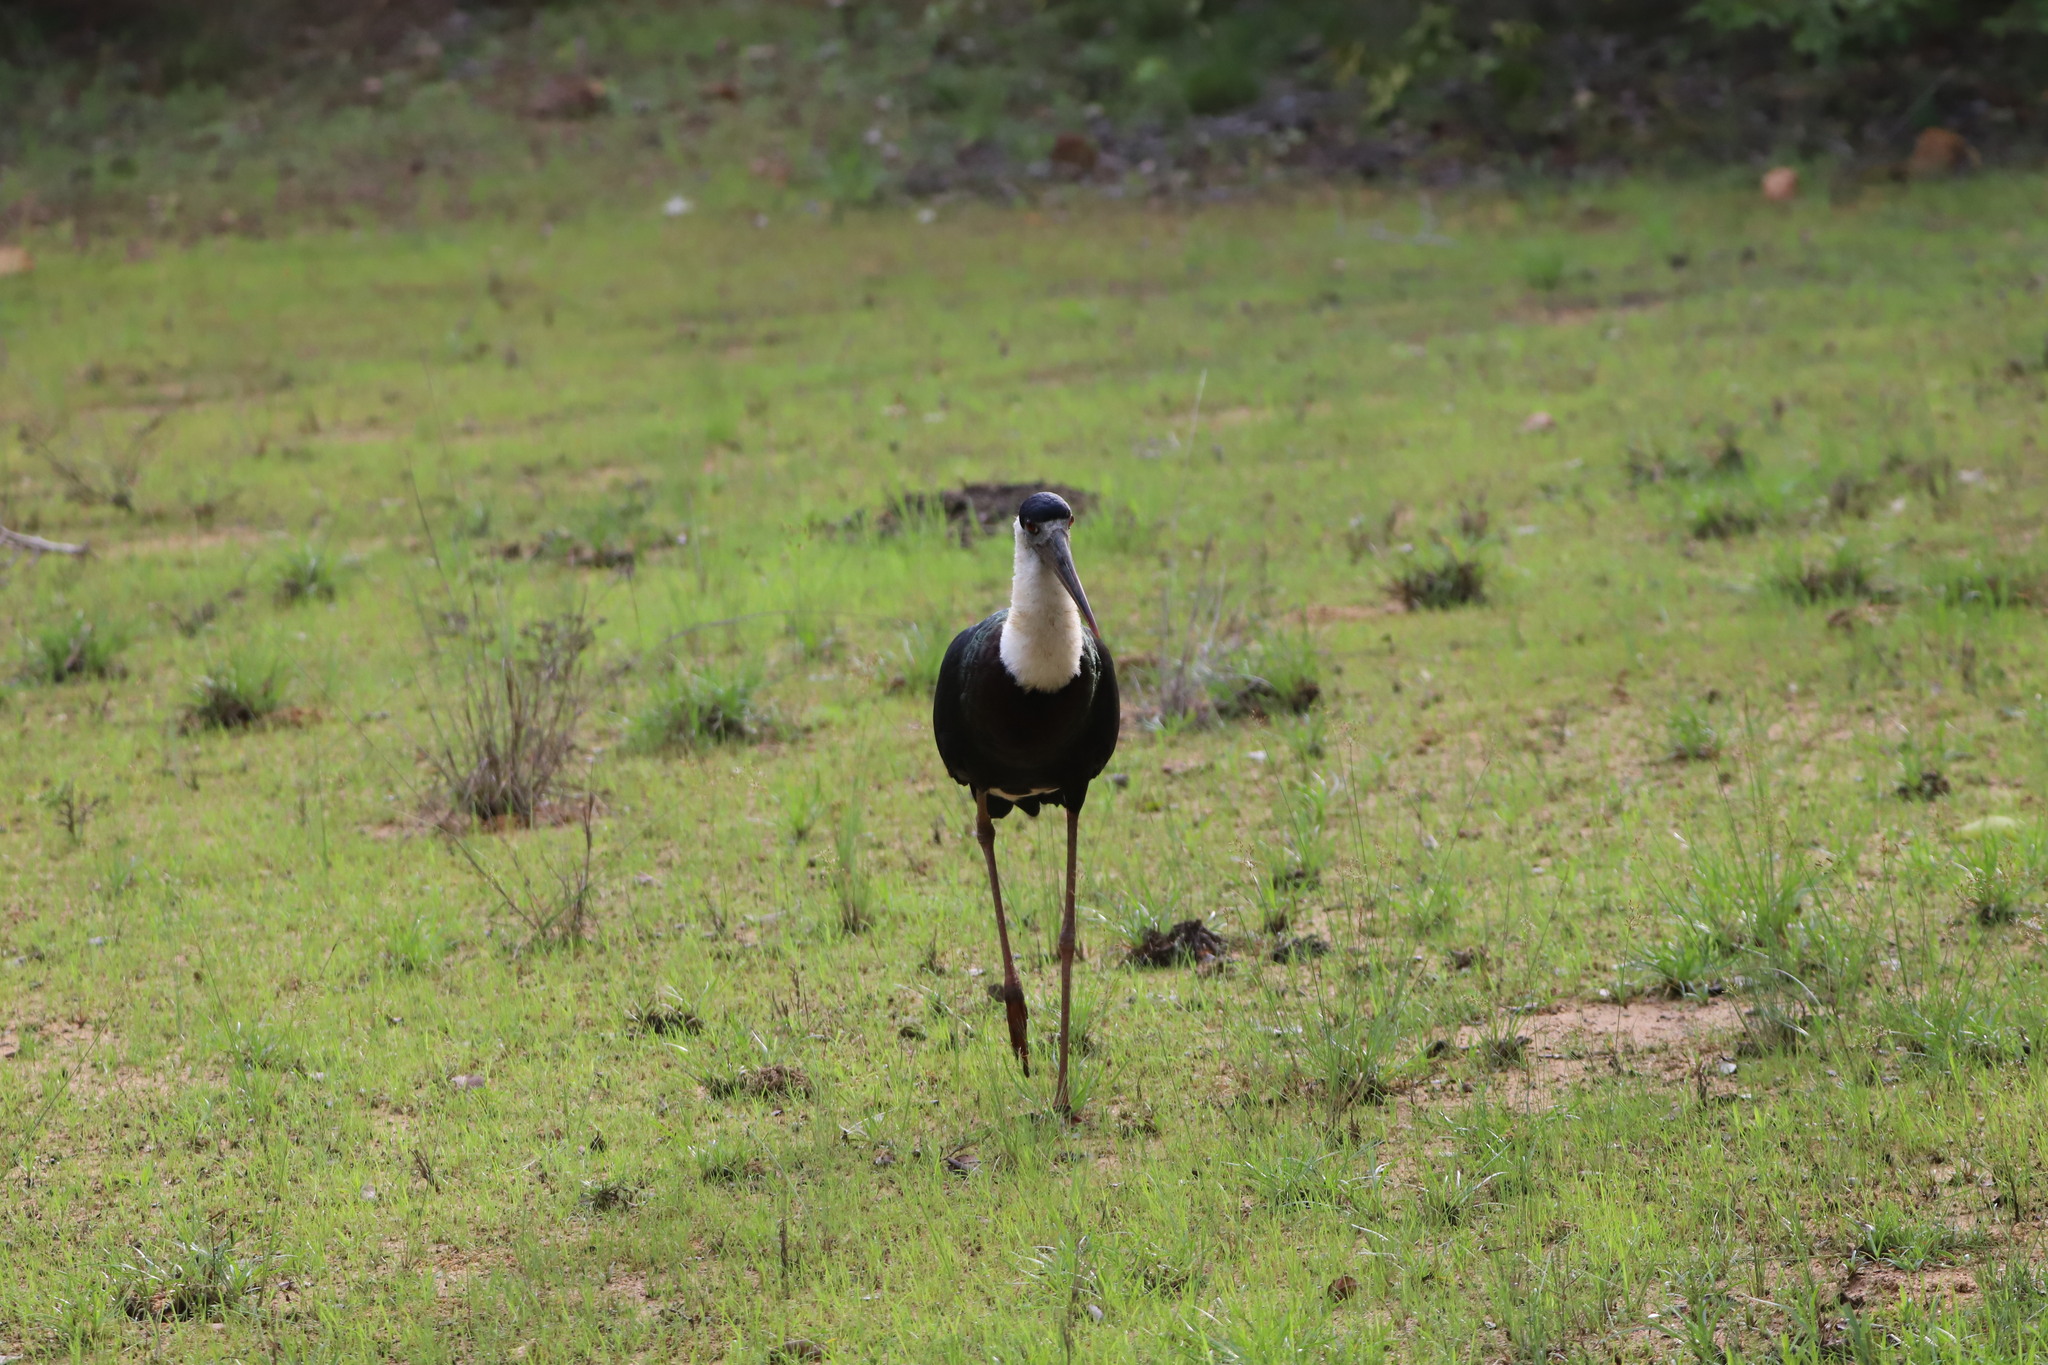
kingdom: Animalia
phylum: Chordata
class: Aves
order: Ciconiiformes
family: Ciconiidae
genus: Ciconia
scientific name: Ciconia episcopus
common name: Woolly-necked stork
